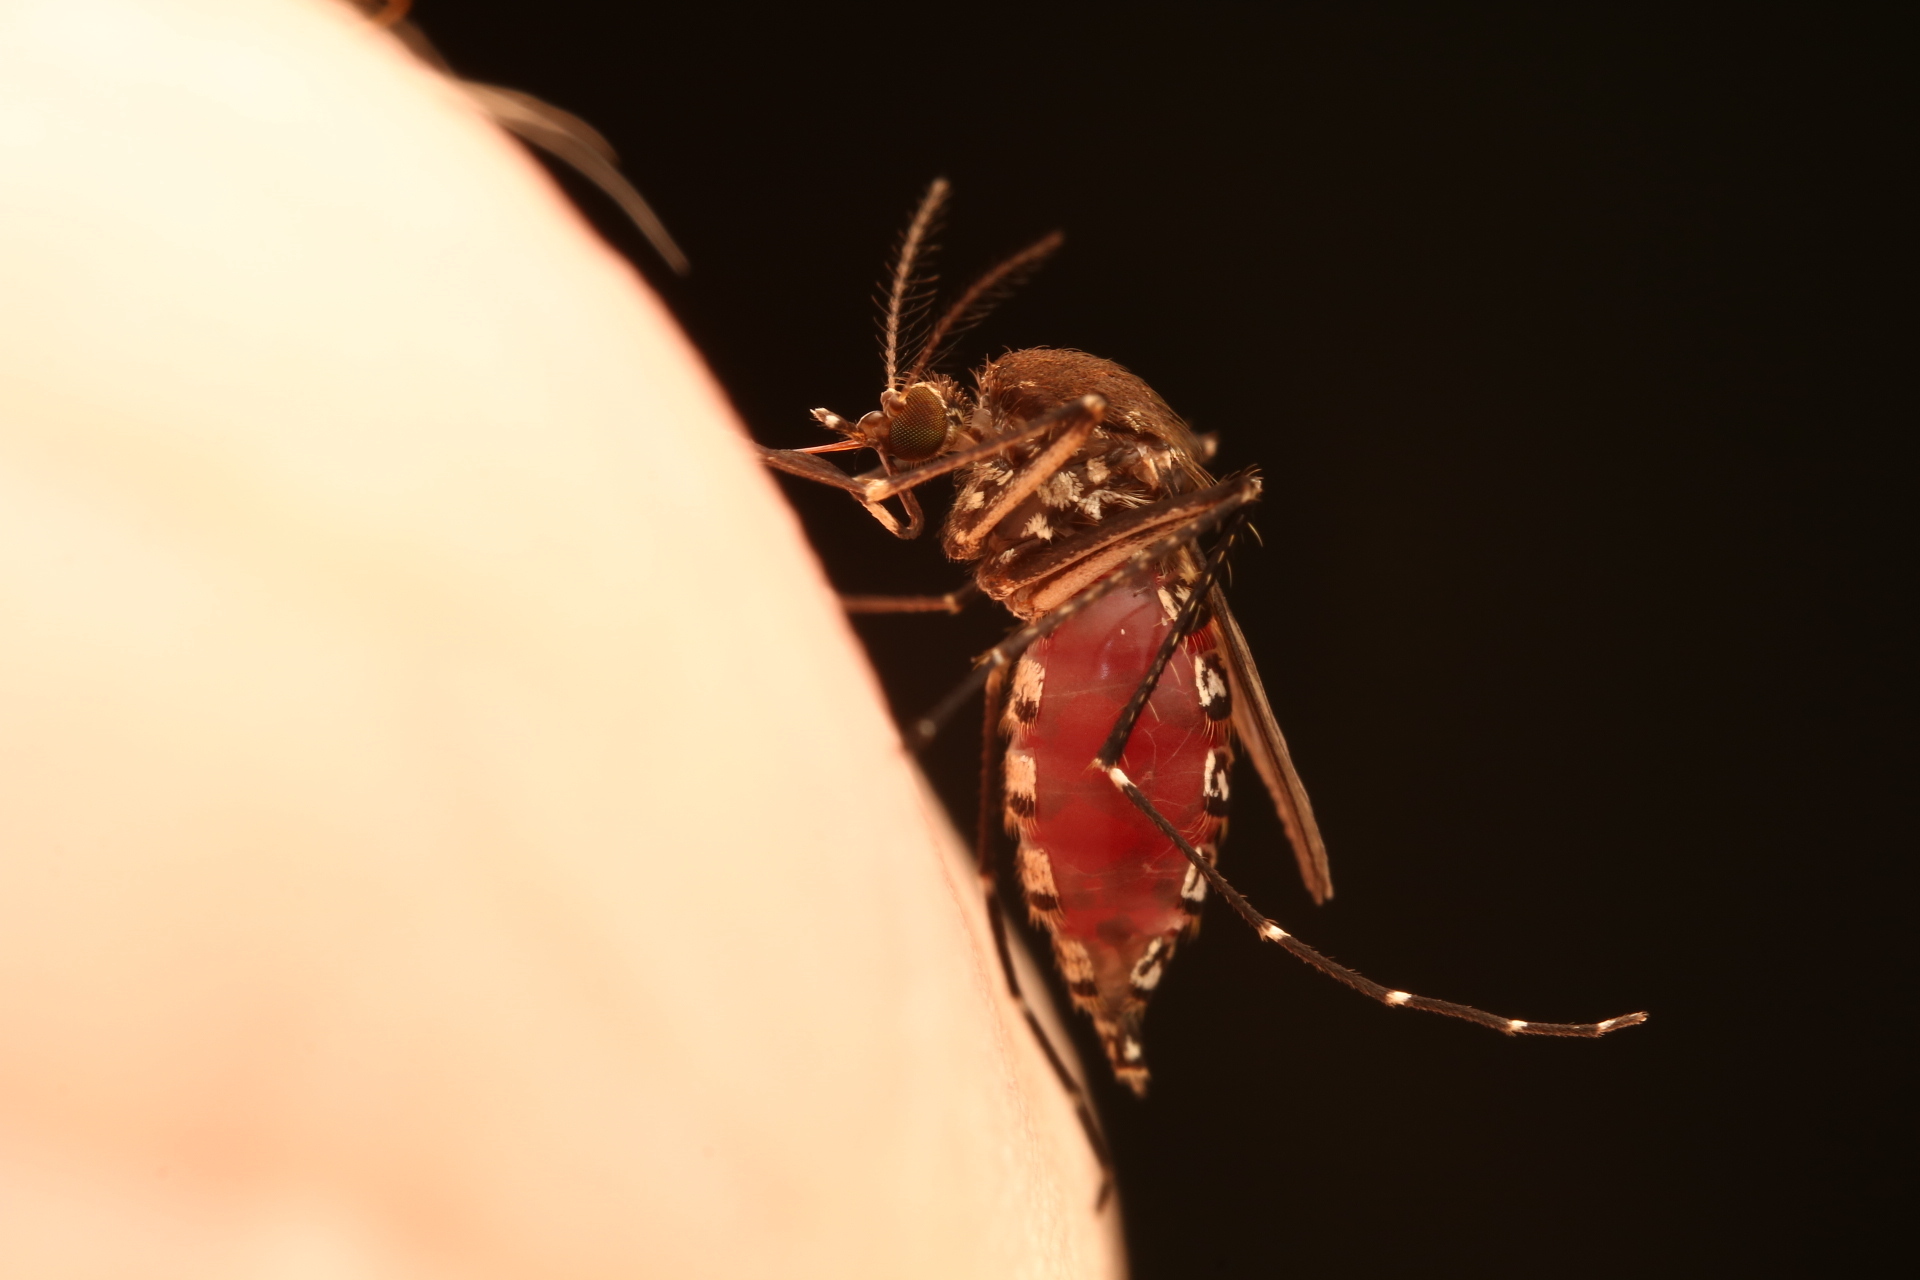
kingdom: Animalia
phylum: Arthropoda
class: Insecta
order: Diptera
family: Culicidae
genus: Aedes
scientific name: Aedes taeniorhynchus
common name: Black salt marsh mosquito
